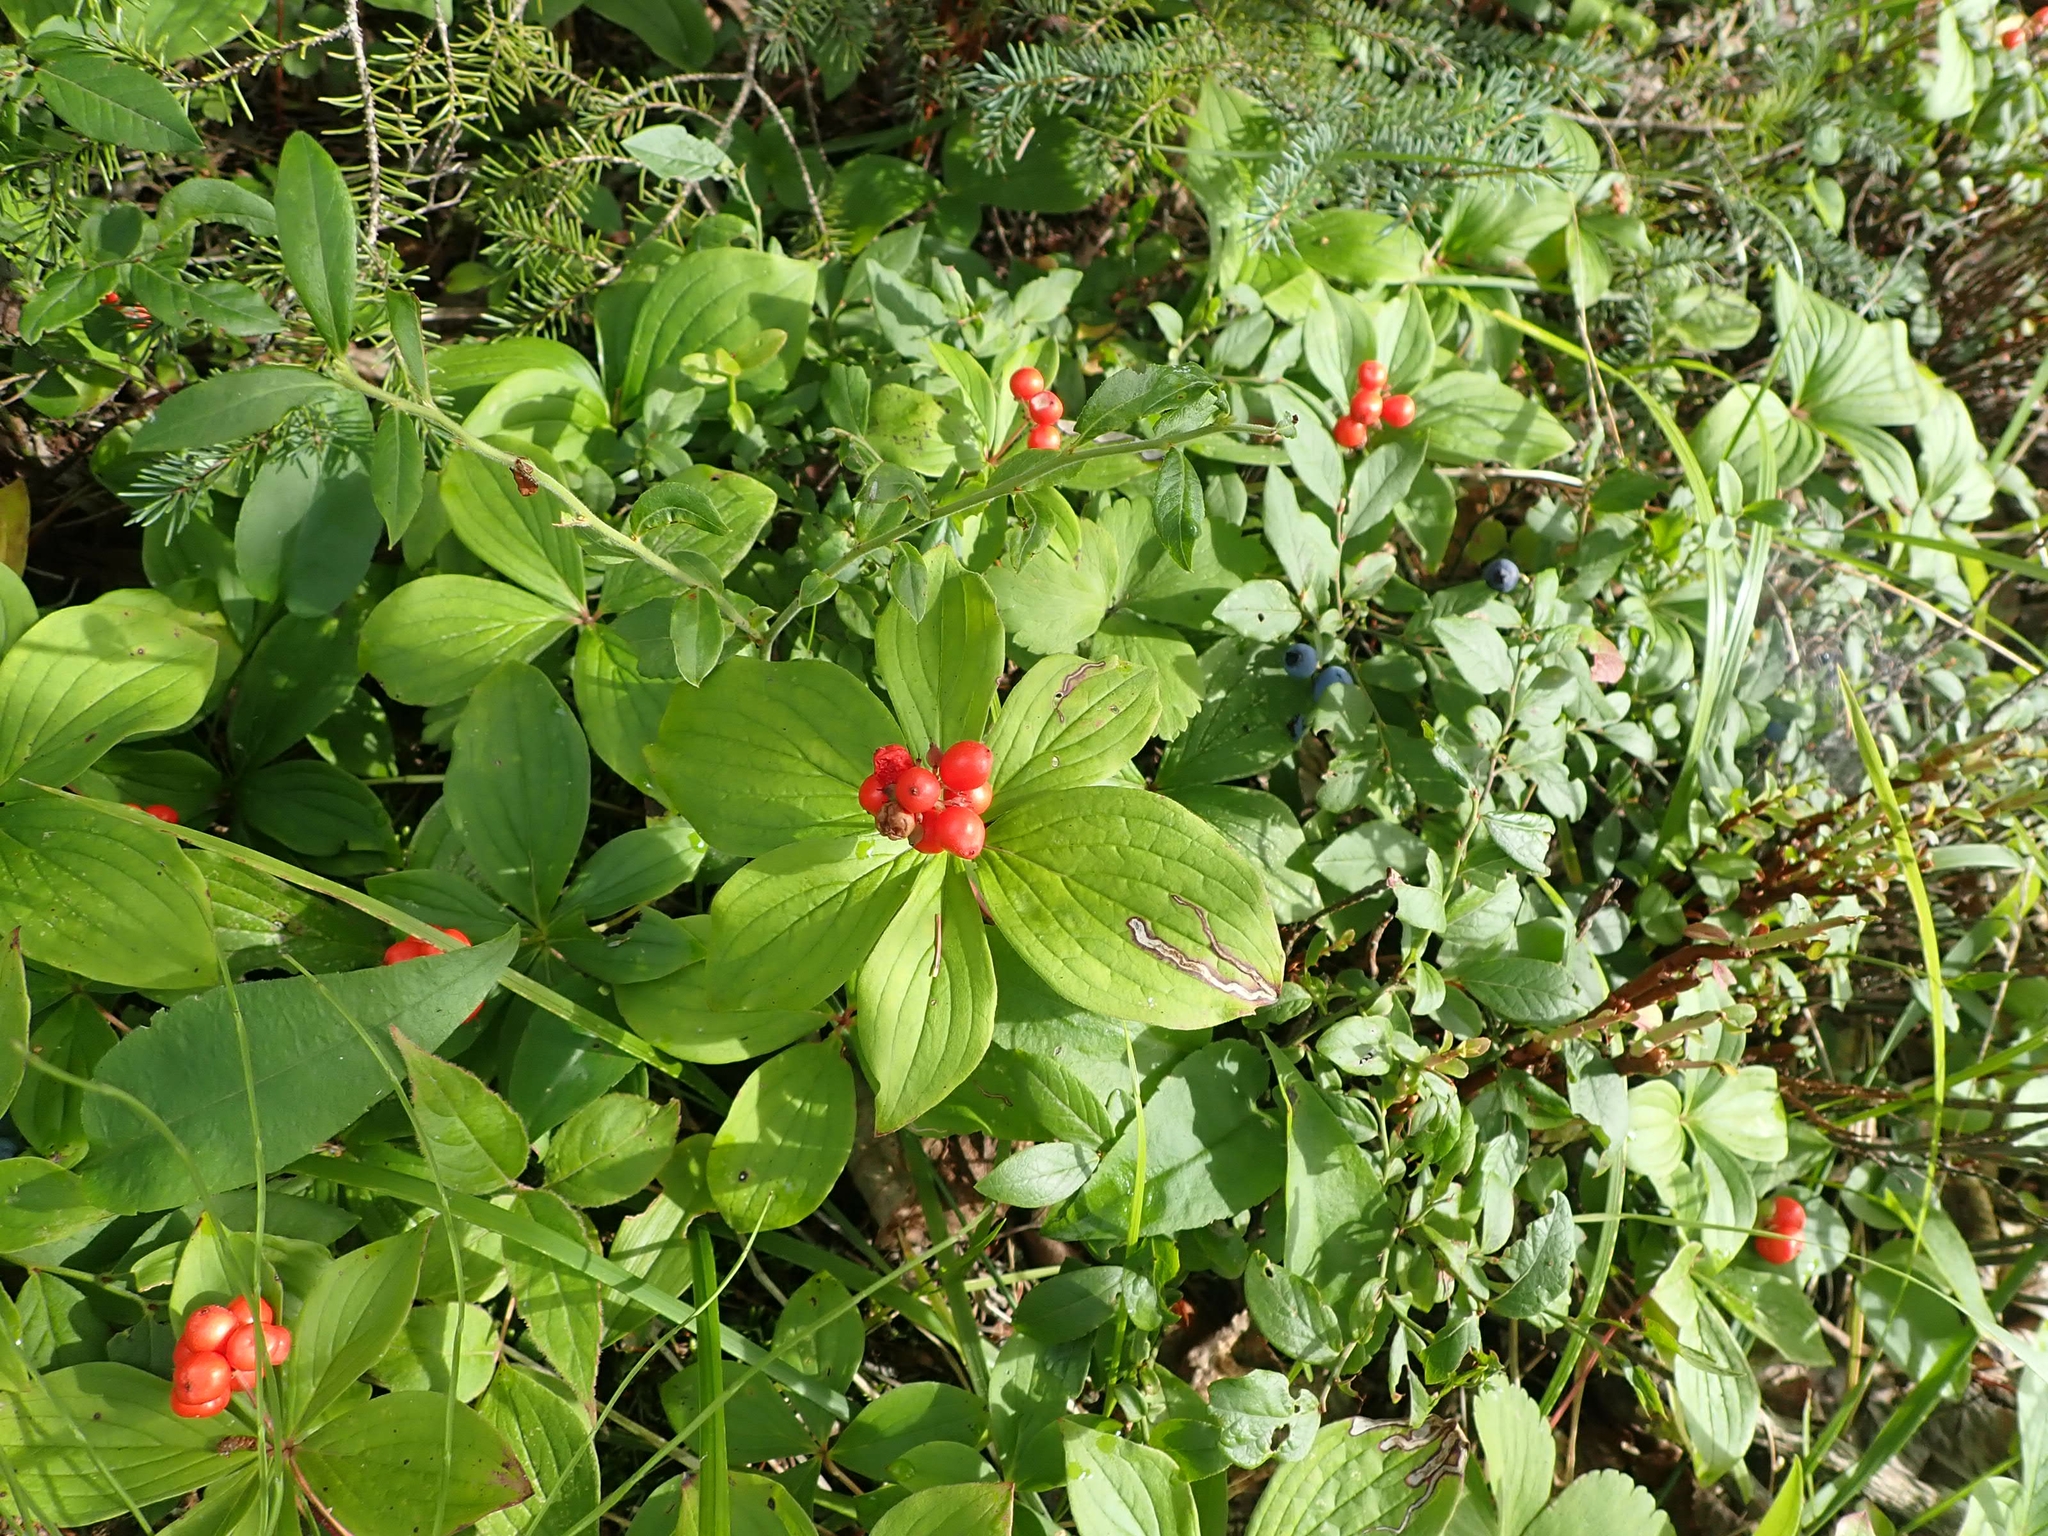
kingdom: Plantae
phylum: Tracheophyta
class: Magnoliopsida
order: Cornales
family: Cornaceae
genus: Cornus
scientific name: Cornus canadensis
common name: Creeping dogwood
